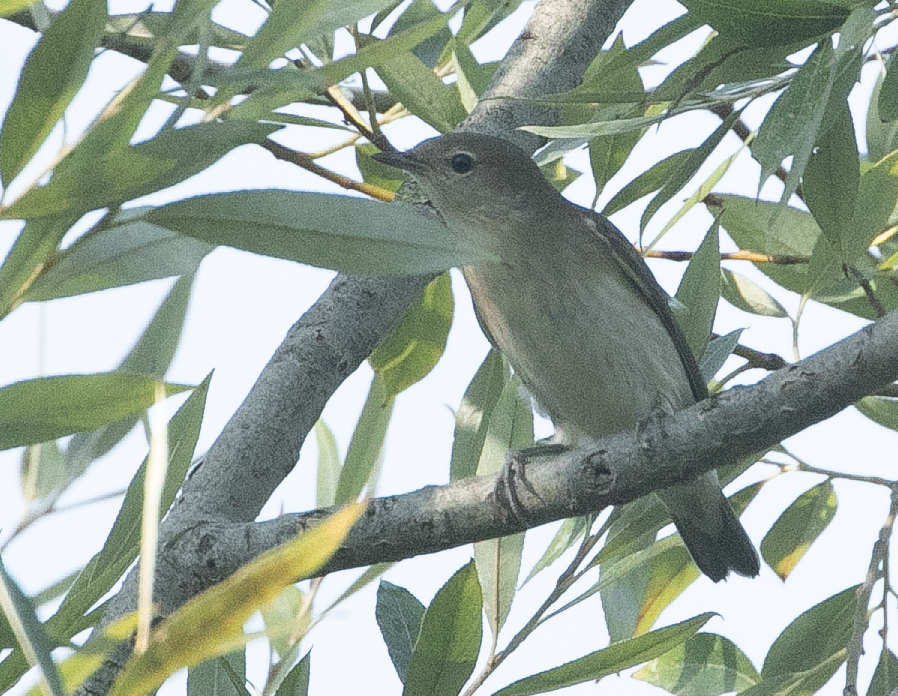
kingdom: Animalia
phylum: Chordata
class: Aves
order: Passeriformes
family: Sylviidae
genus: Sylvia
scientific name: Sylvia borin
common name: Garden warbler
